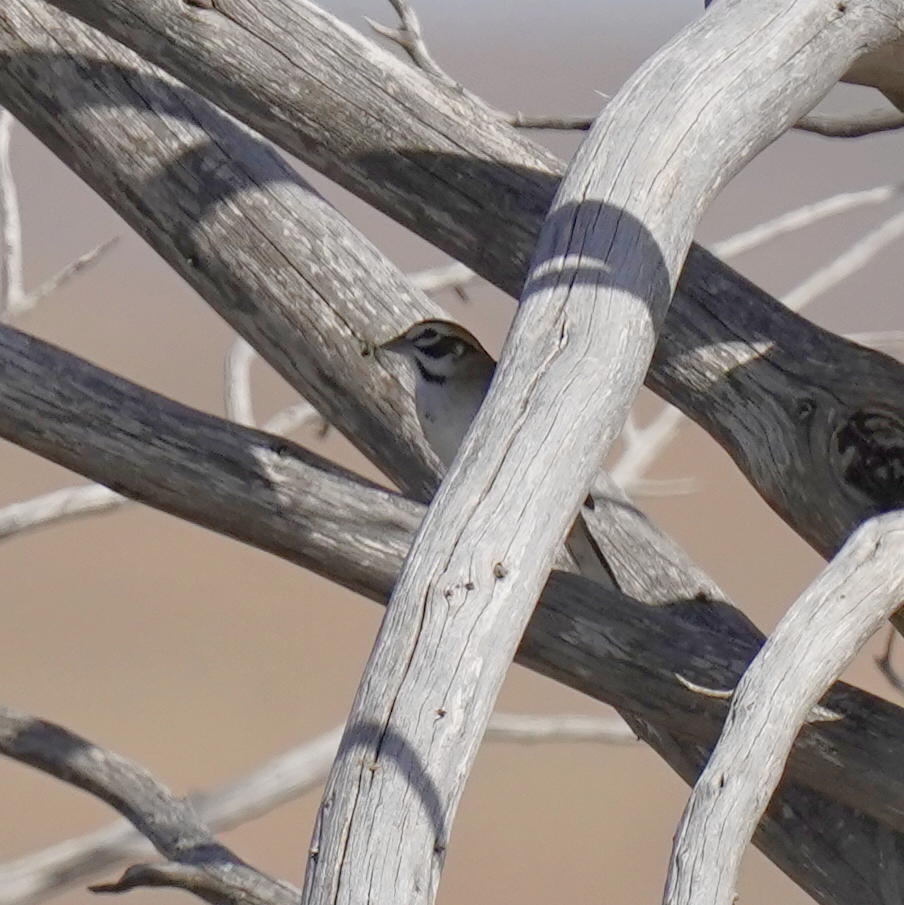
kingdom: Animalia
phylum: Chordata
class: Aves
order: Passeriformes
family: Passerellidae
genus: Chondestes
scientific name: Chondestes grammacus
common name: Lark sparrow
